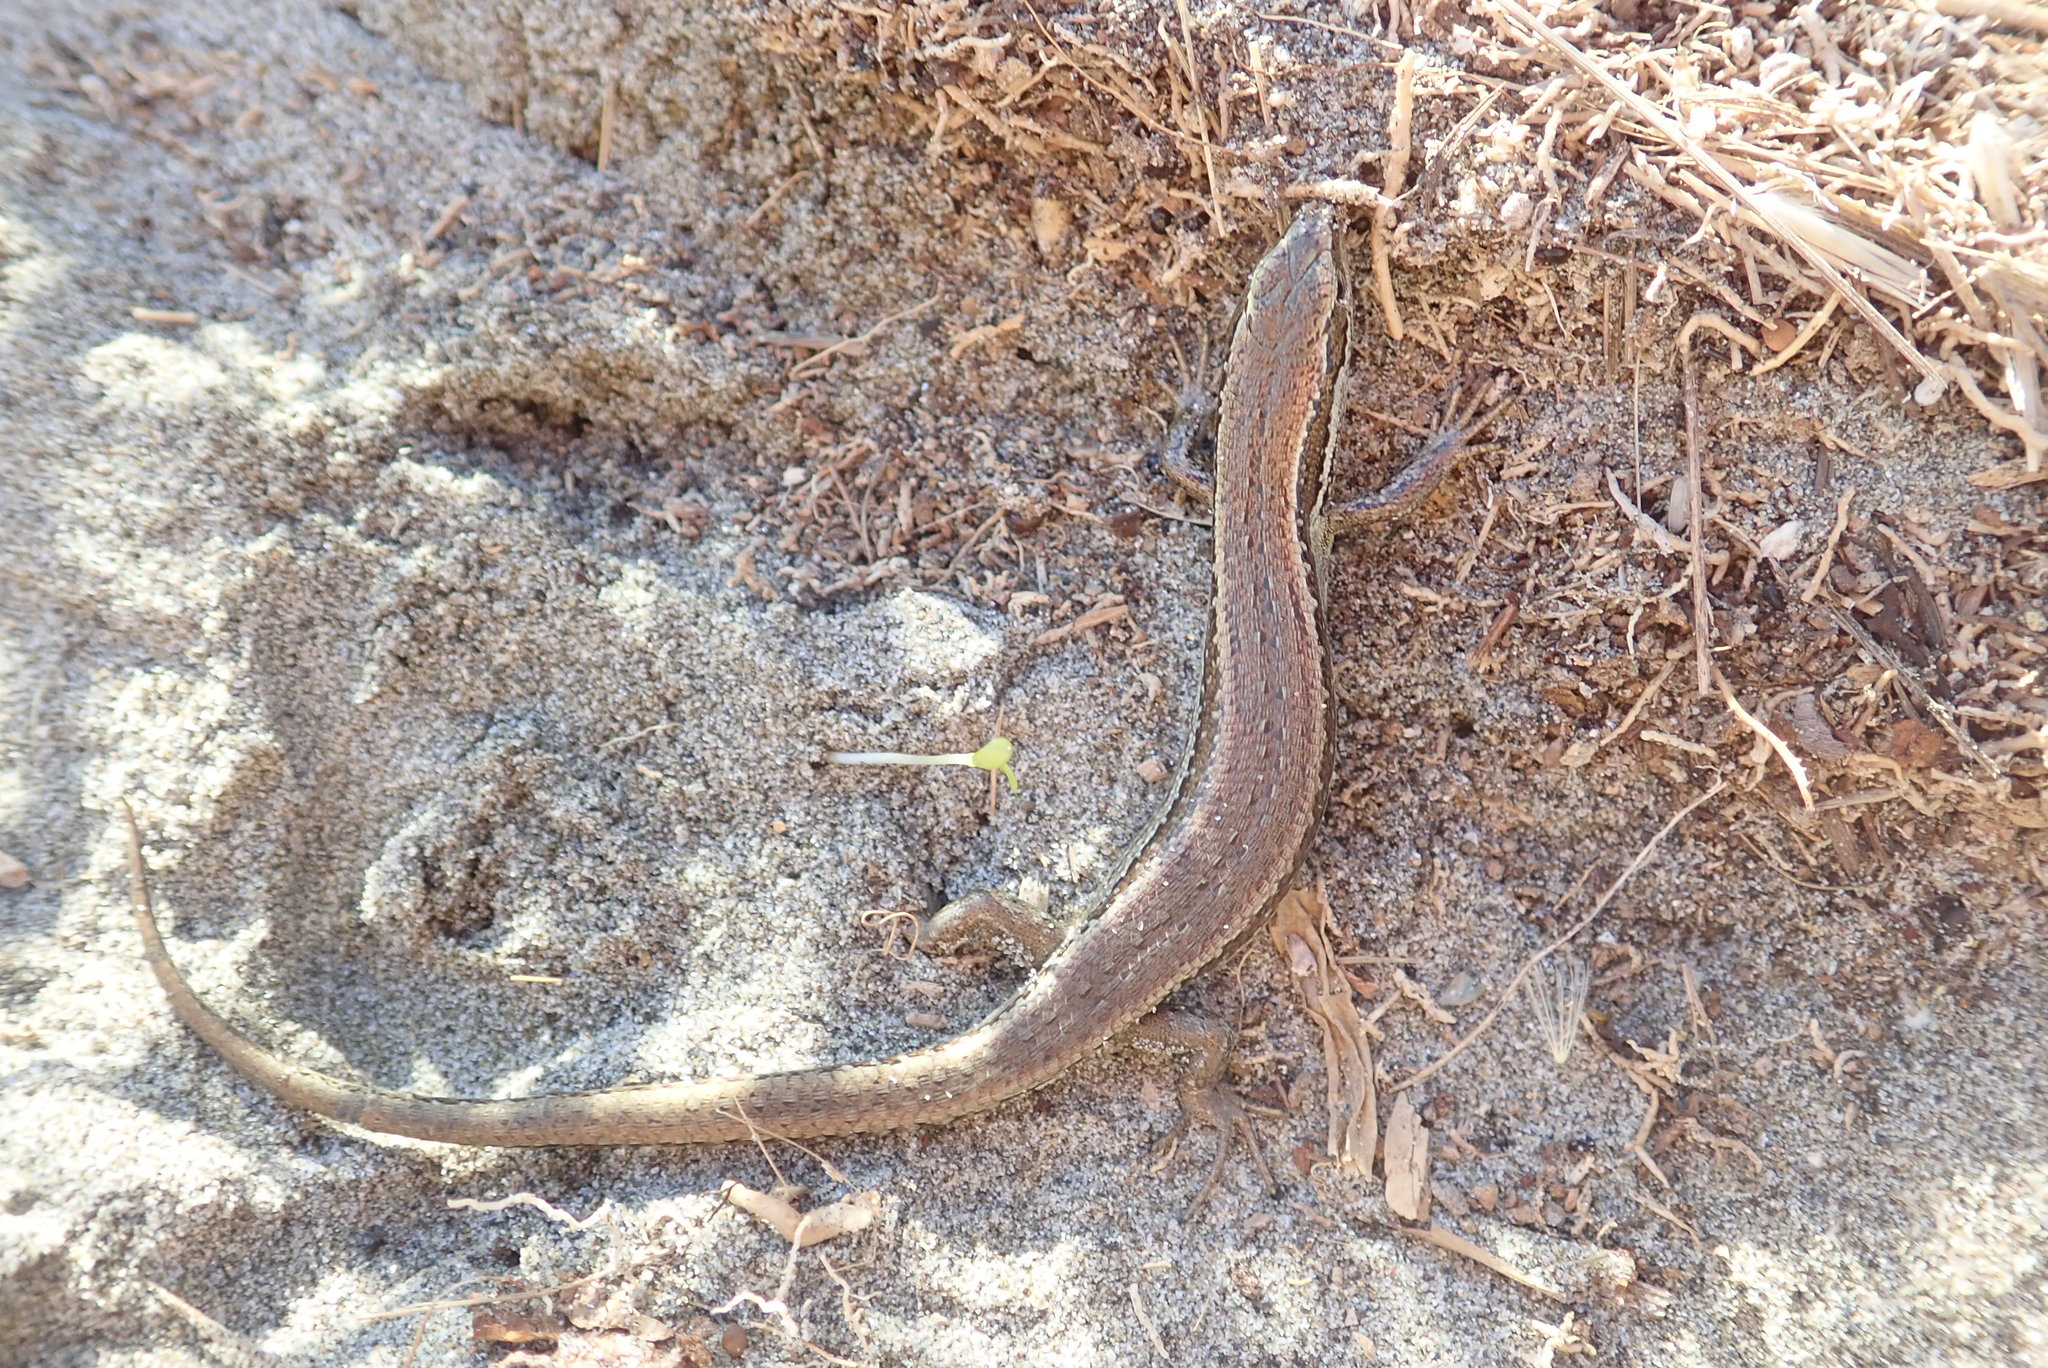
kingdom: Animalia
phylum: Chordata
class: Squamata
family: Scincidae
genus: Oligosoma
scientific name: Oligosoma polychroma
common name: Common new zealand skink
